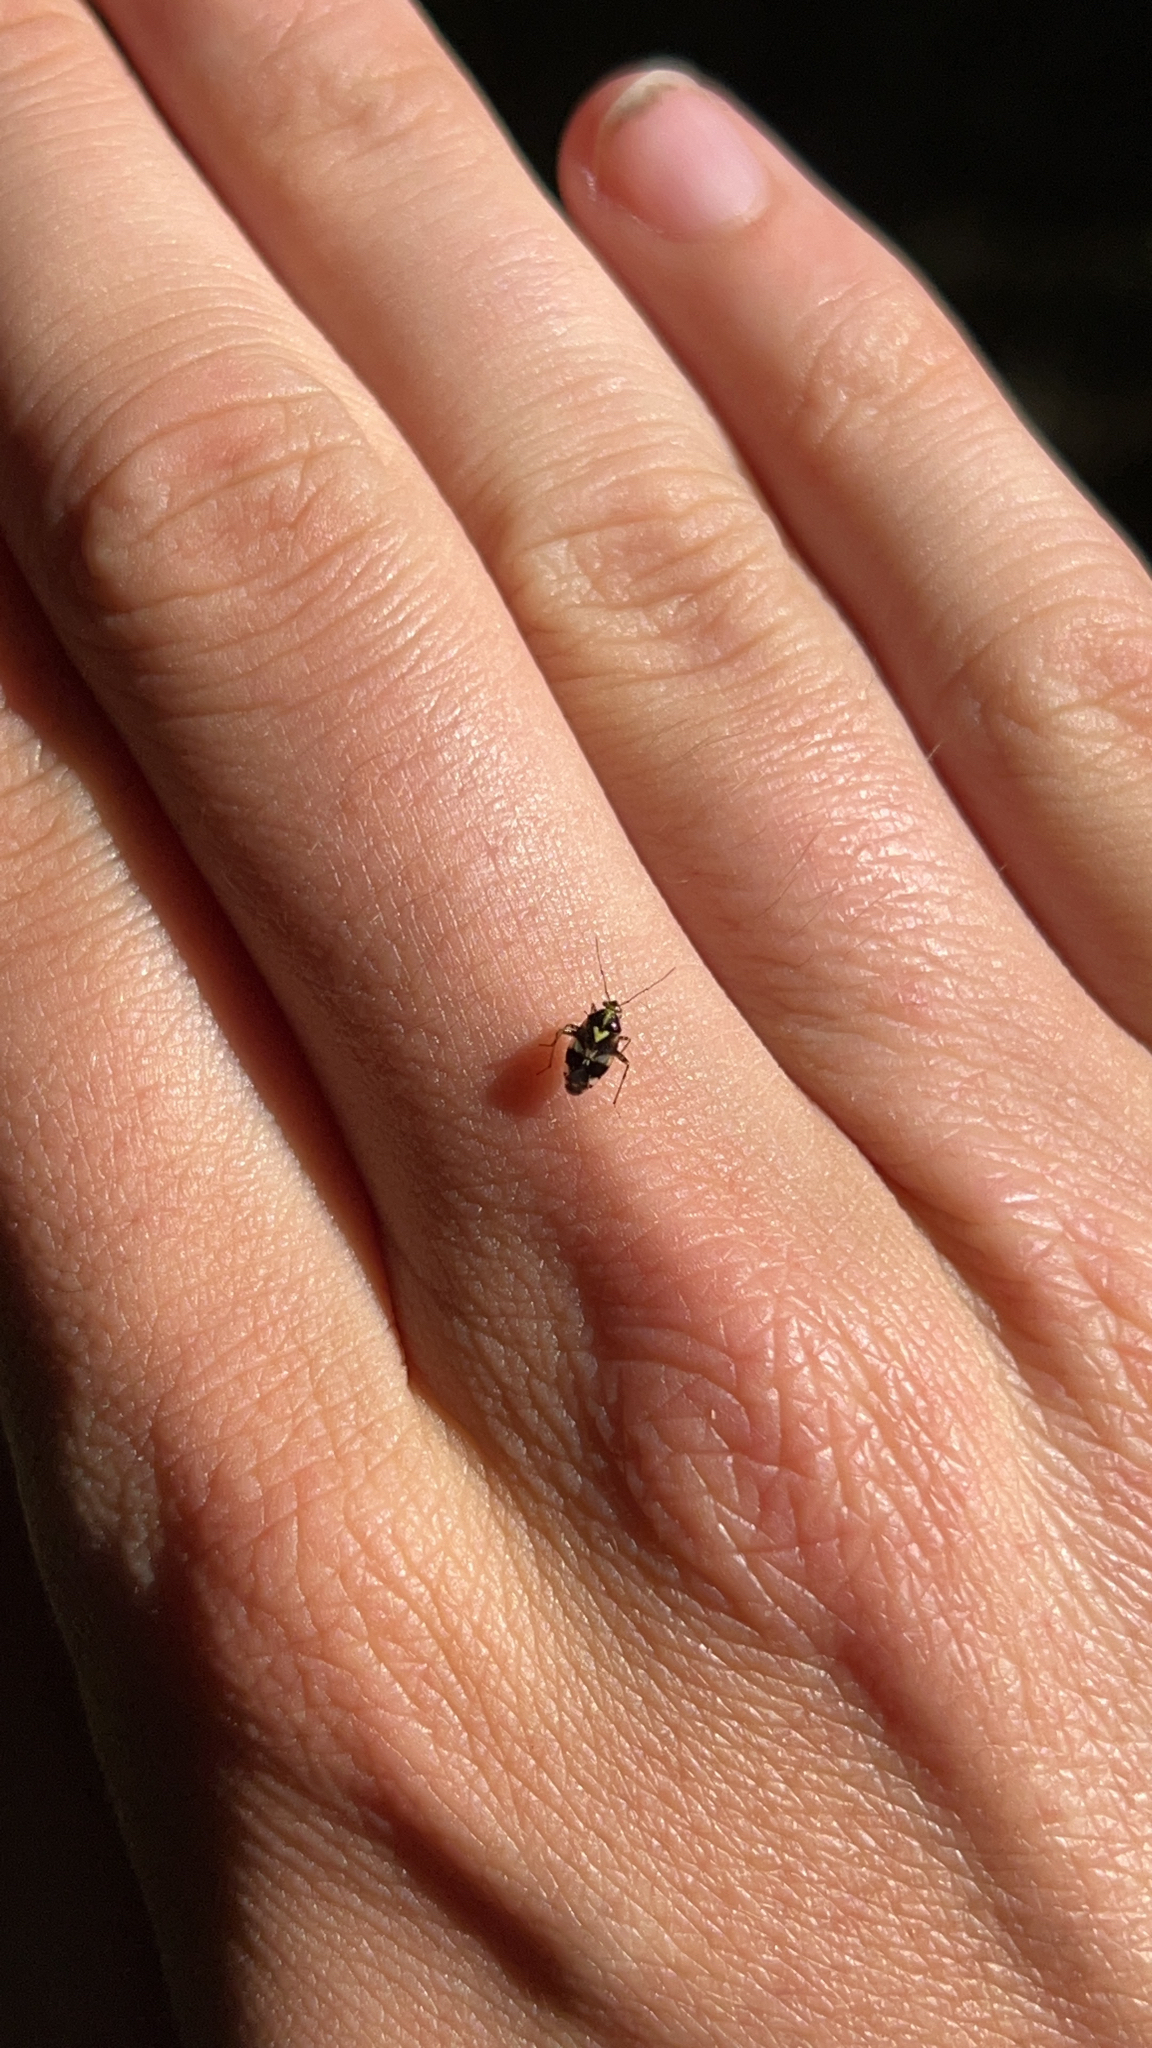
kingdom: Animalia
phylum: Arthropoda
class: Insecta
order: Hemiptera
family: Miridae
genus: Liocoris
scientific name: Liocoris tripustulatus
